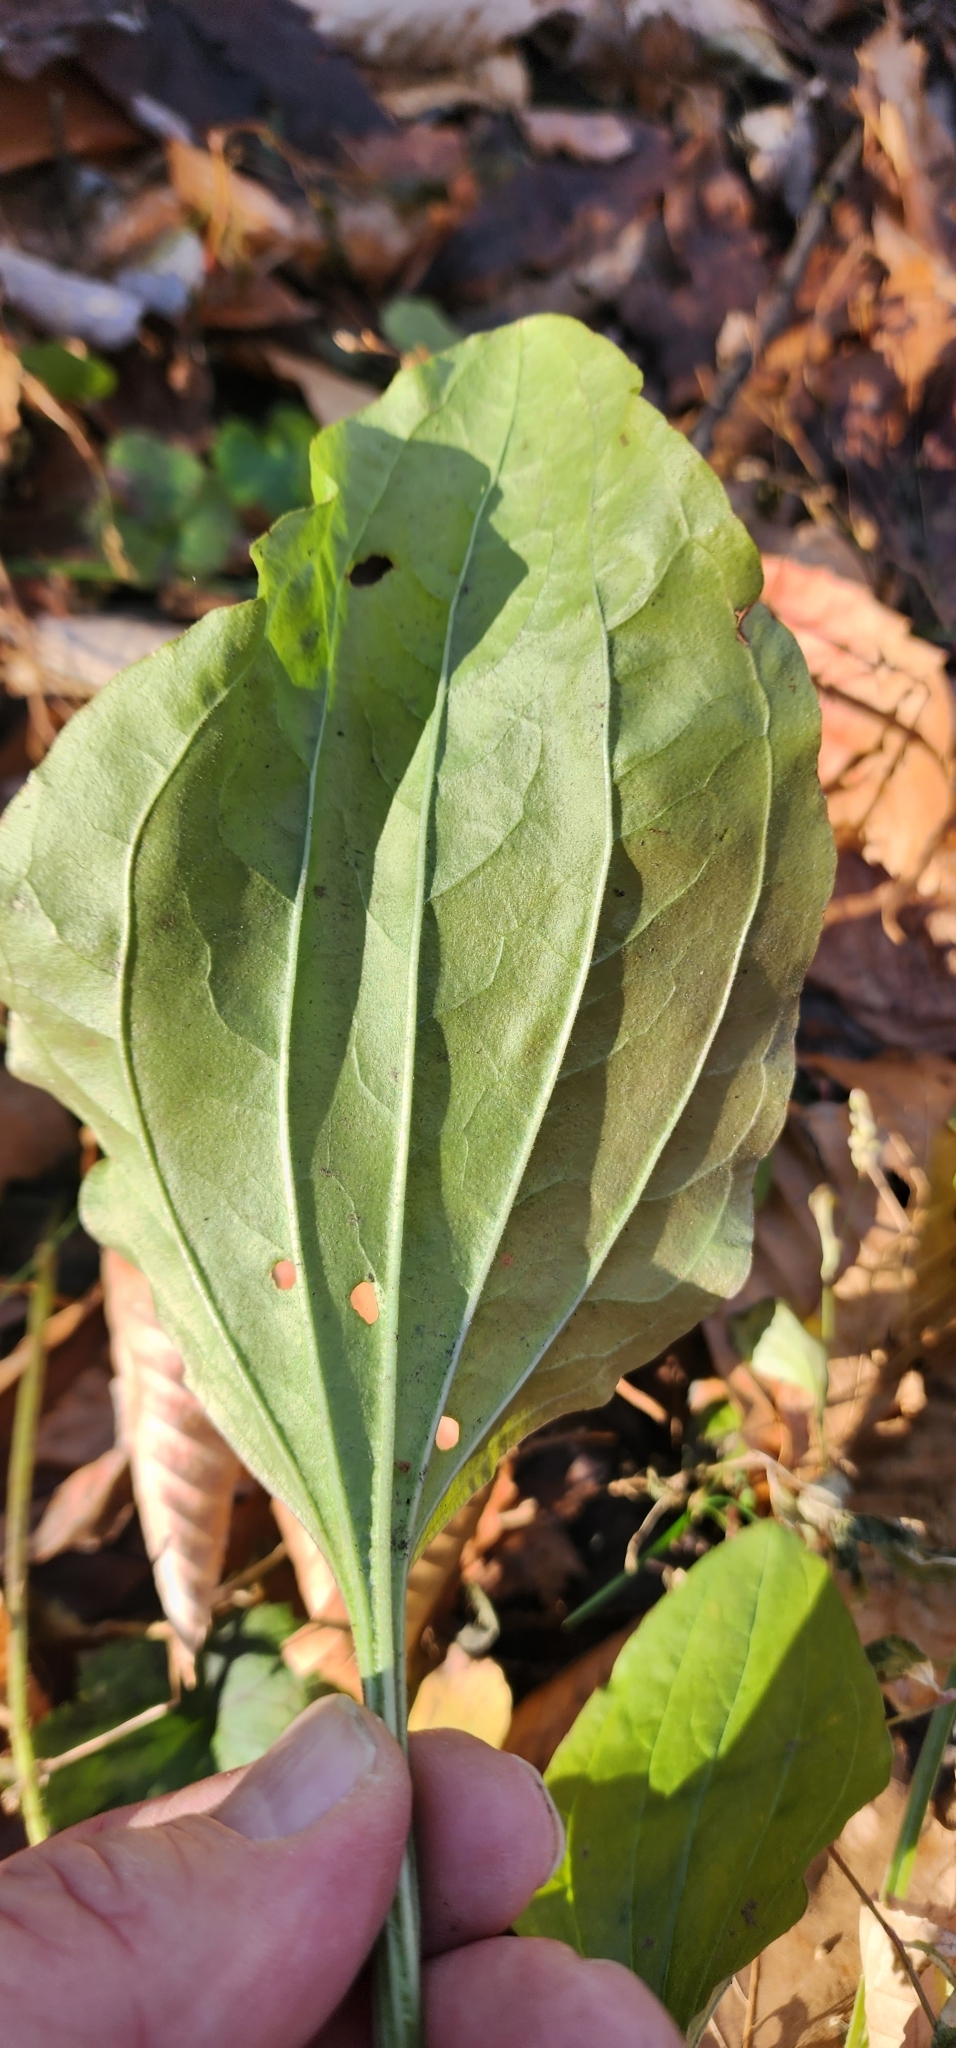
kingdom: Plantae
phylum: Tracheophyta
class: Magnoliopsida
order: Lamiales
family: Plantaginaceae
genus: Plantago
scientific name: Plantago major
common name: Common plantain
